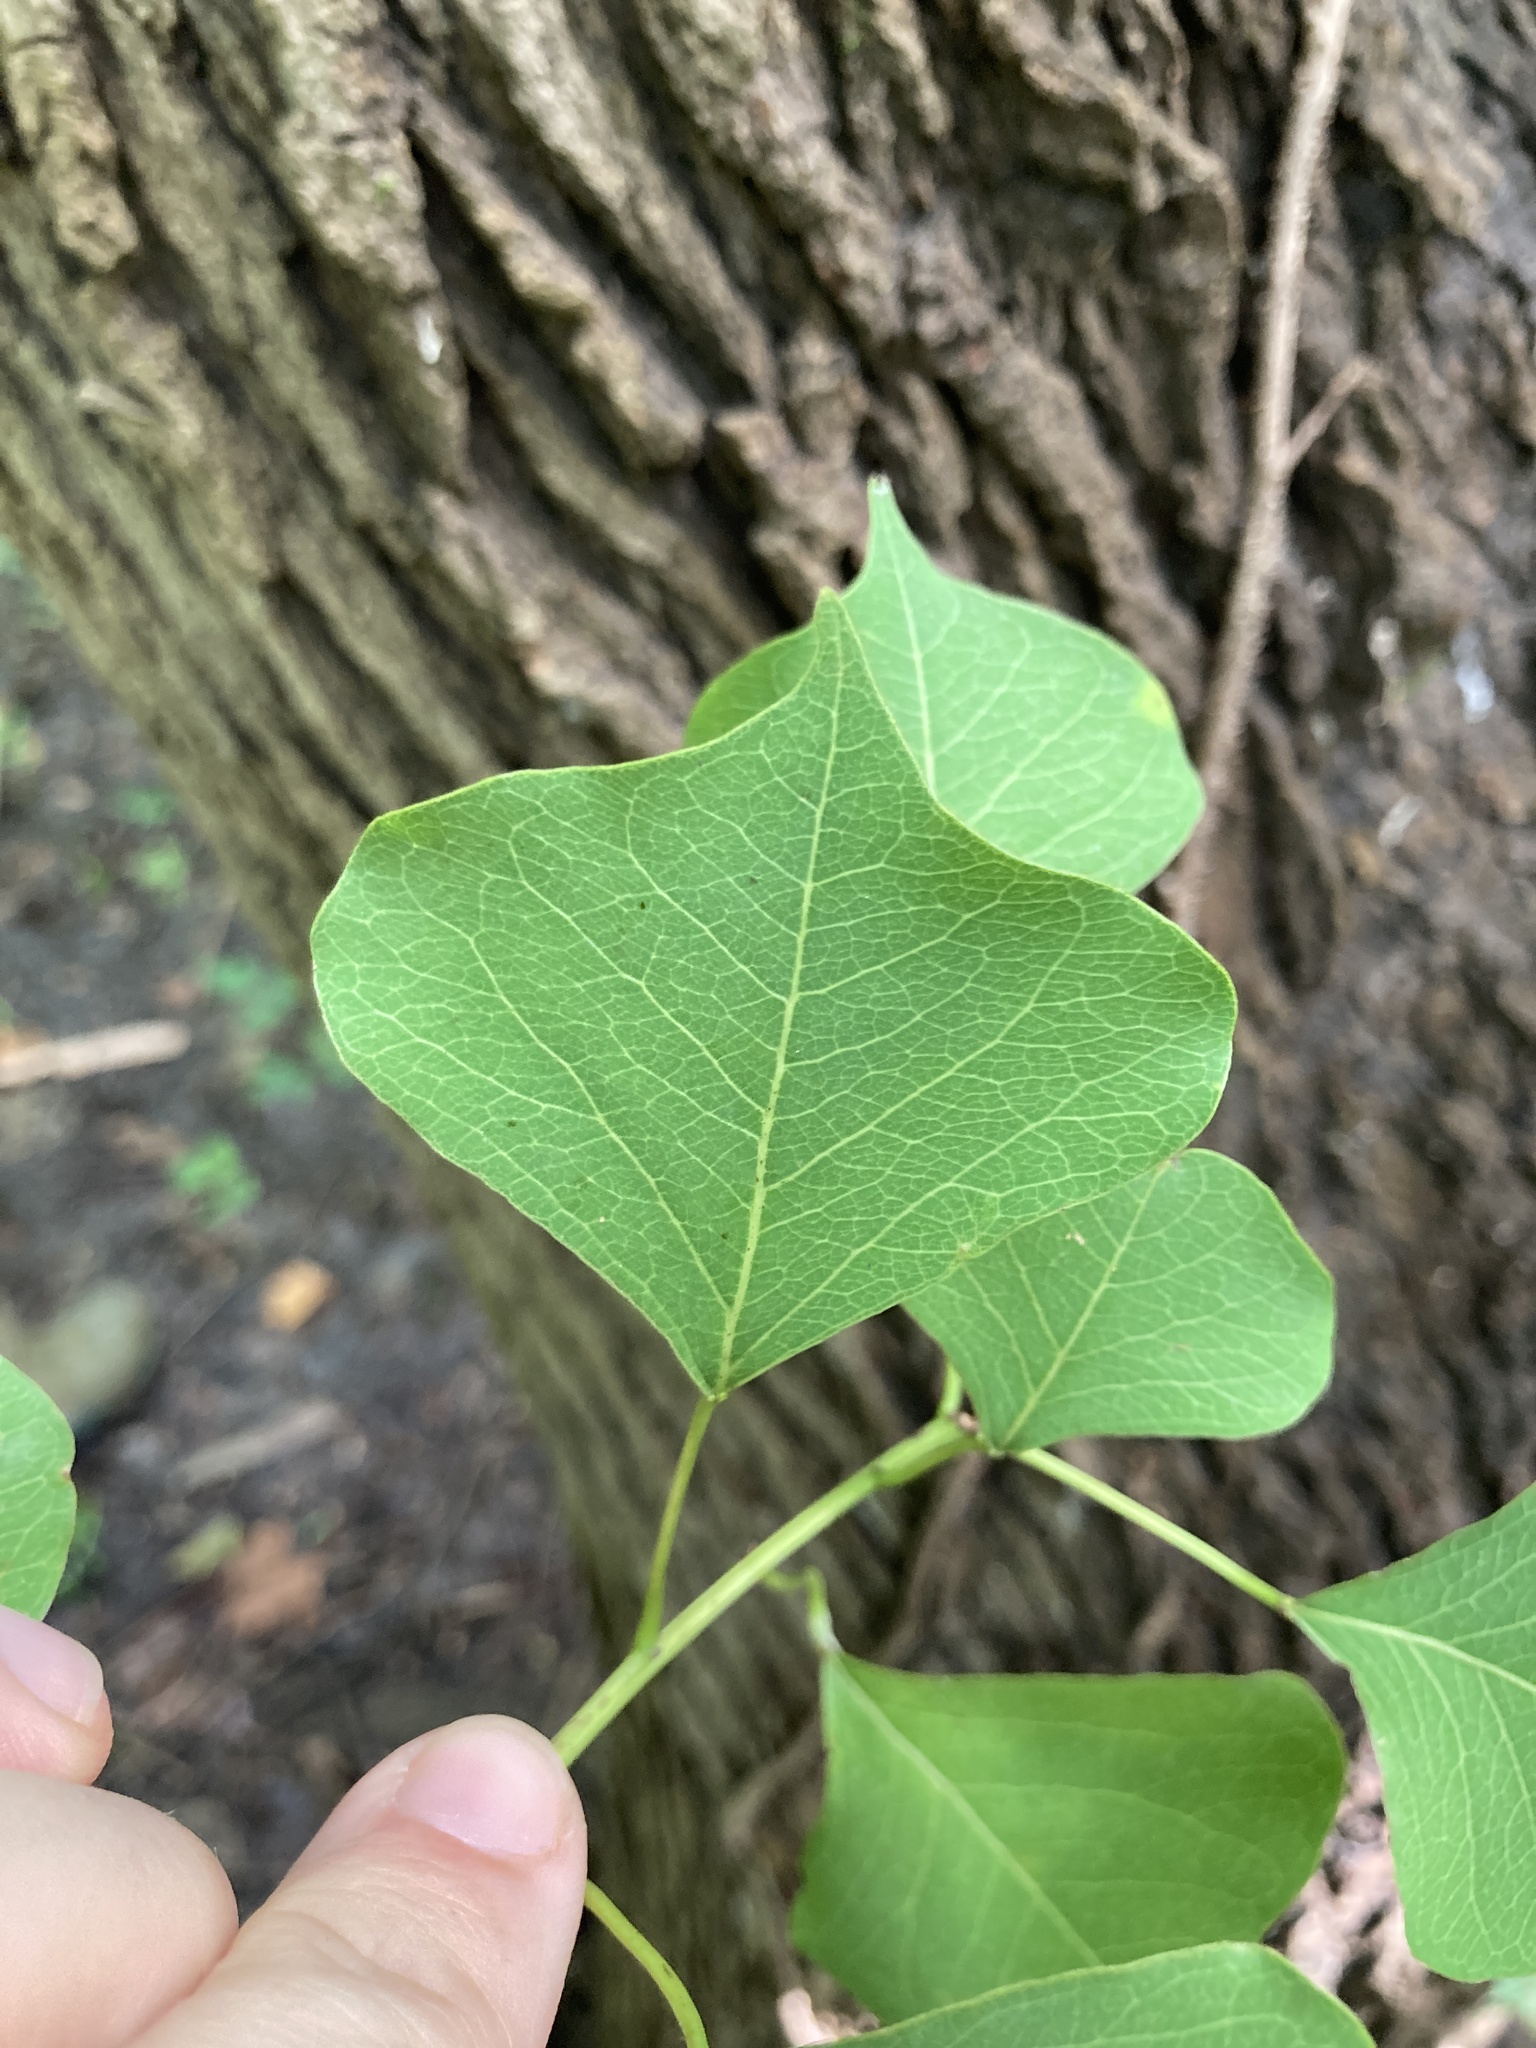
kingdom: Plantae
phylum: Tracheophyta
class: Magnoliopsida
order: Malpighiales
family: Euphorbiaceae
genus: Triadica
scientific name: Triadica sebifera
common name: Chinese tallow
